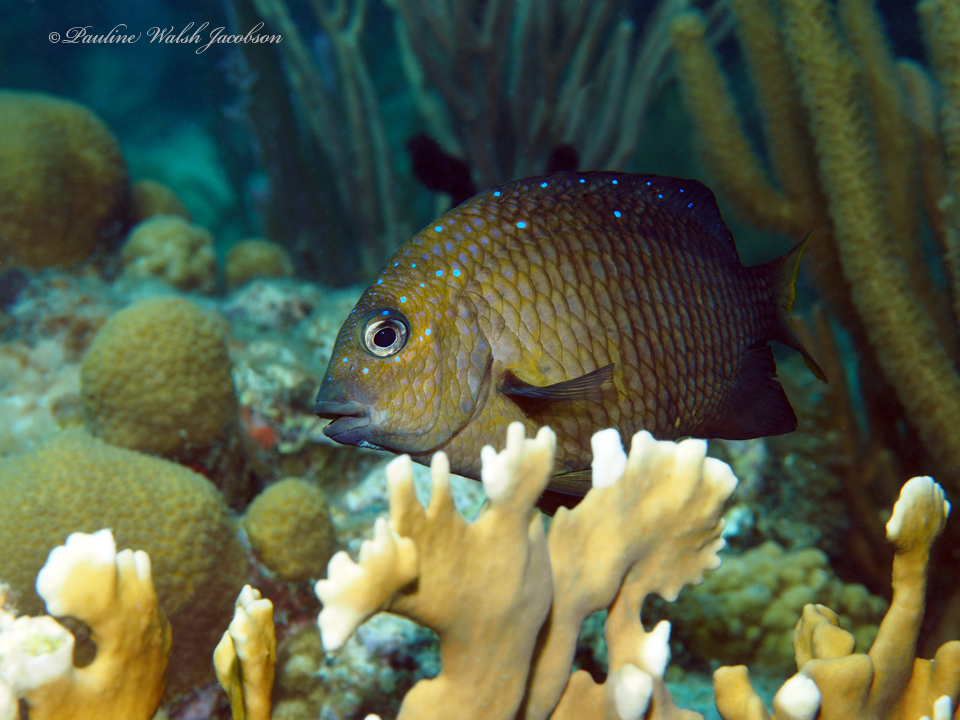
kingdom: Animalia
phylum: Chordata
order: Perciformes
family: Pomacentridae
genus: Microspathodon
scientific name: Microspathodon chrysurus
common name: Yellowtail damselfish
